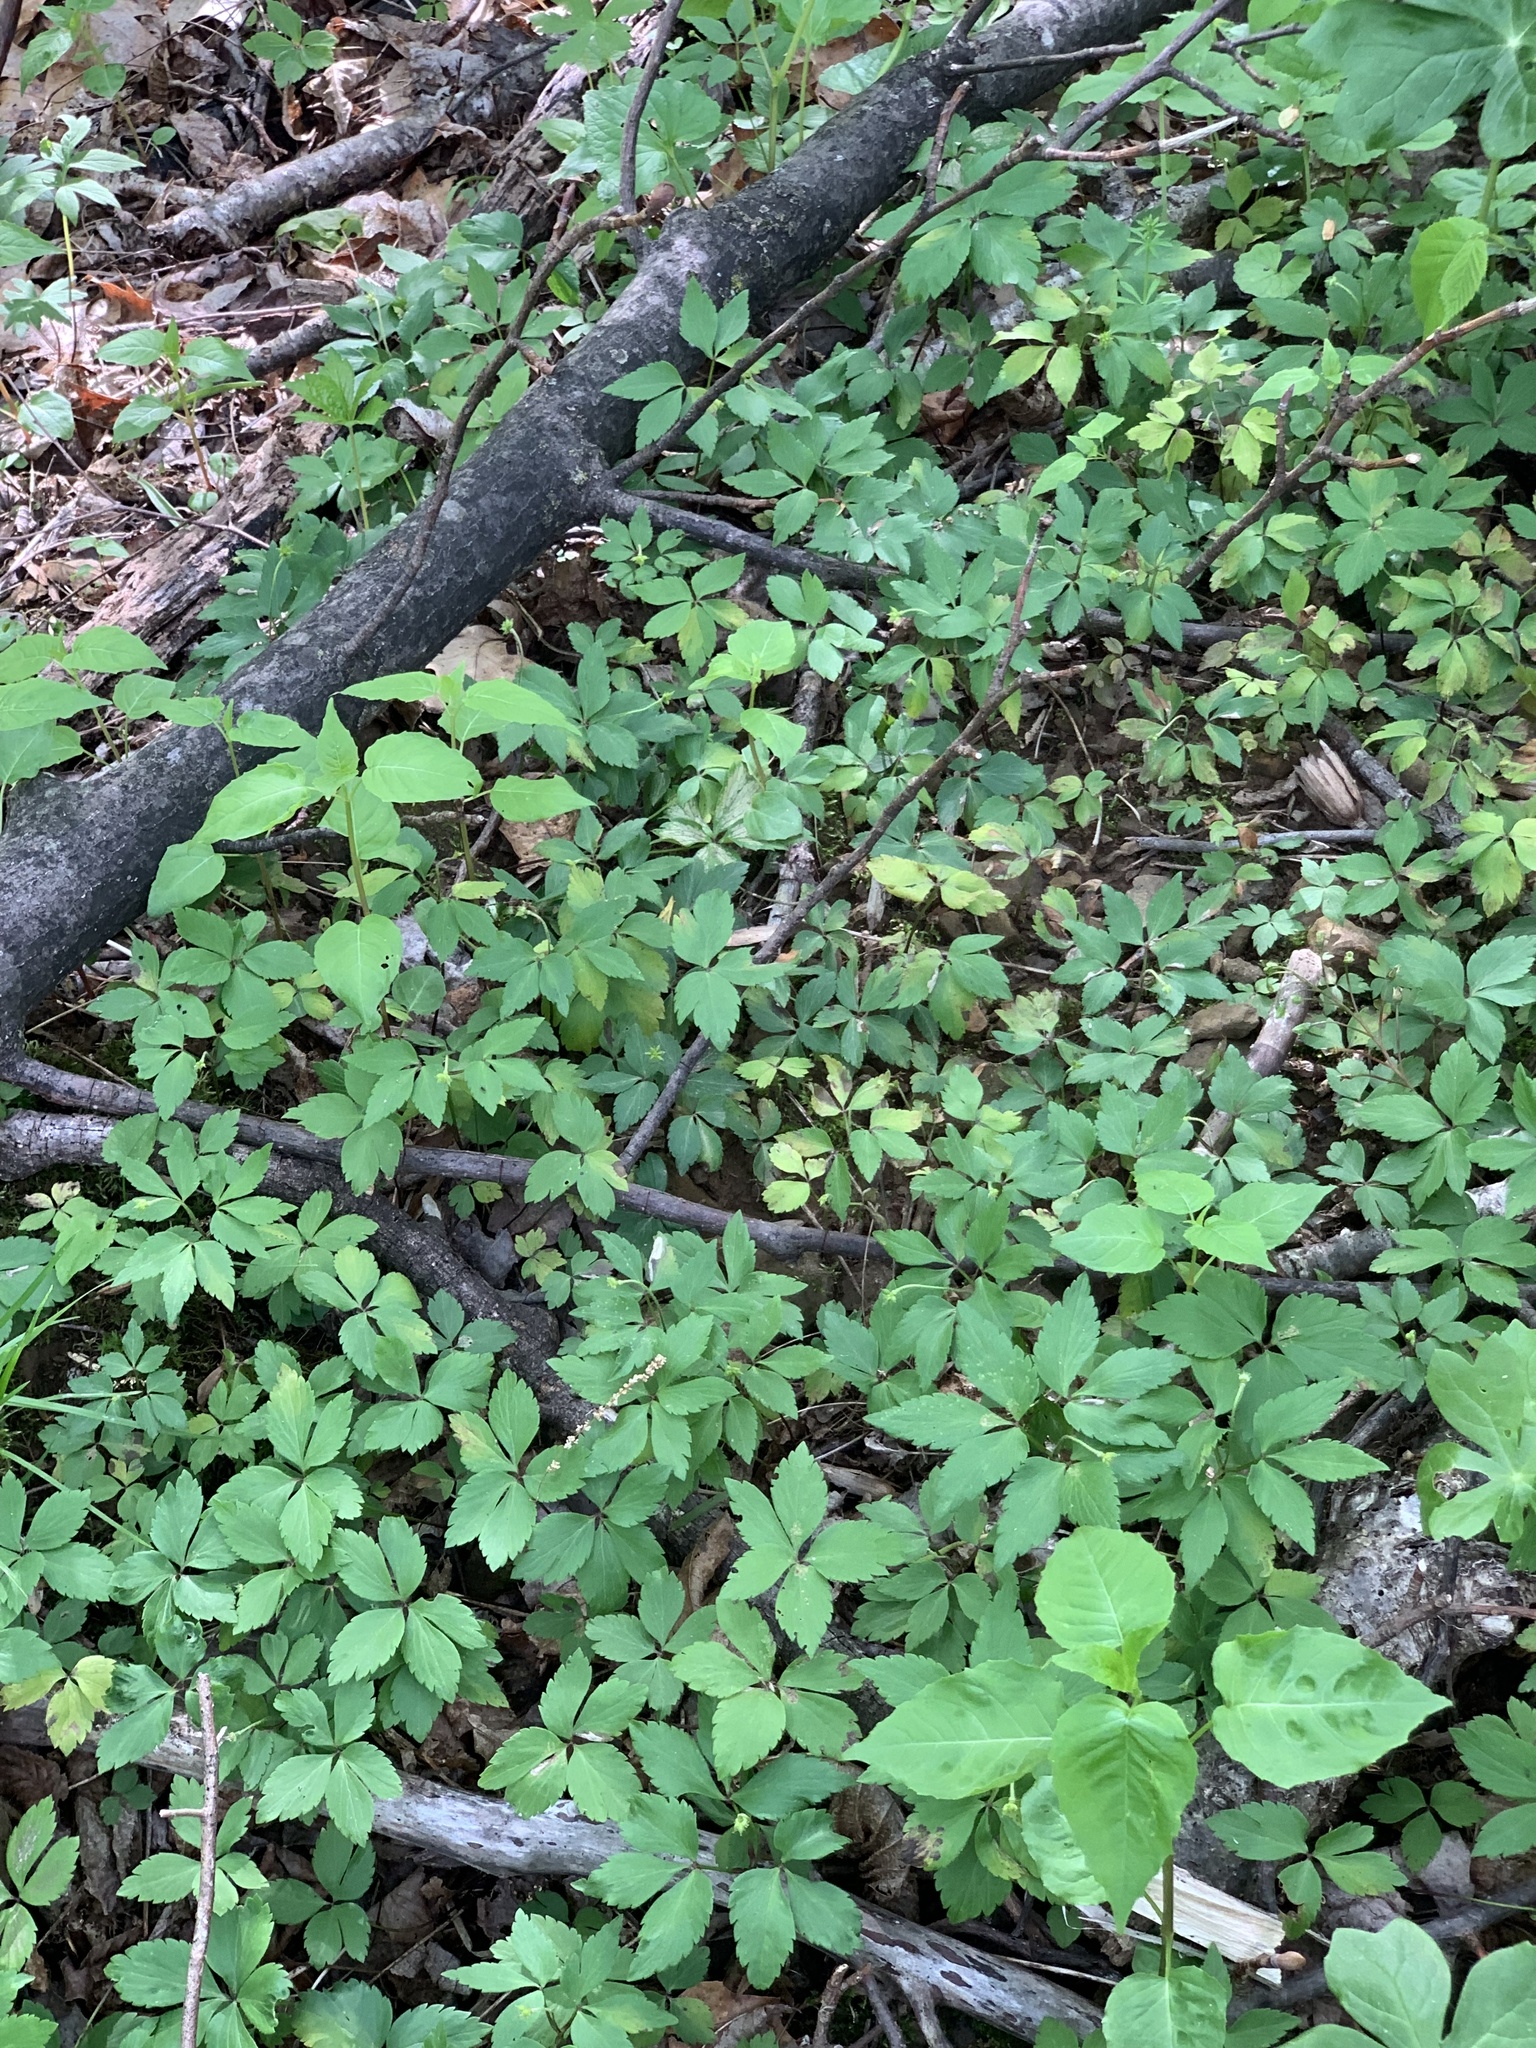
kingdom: Plantae
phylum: Tracheophyta
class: Magnoliopsida
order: Ranunculales
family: Ranunculaceae
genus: Anemone
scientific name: Anemone quinquefolia
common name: Wood anemone
